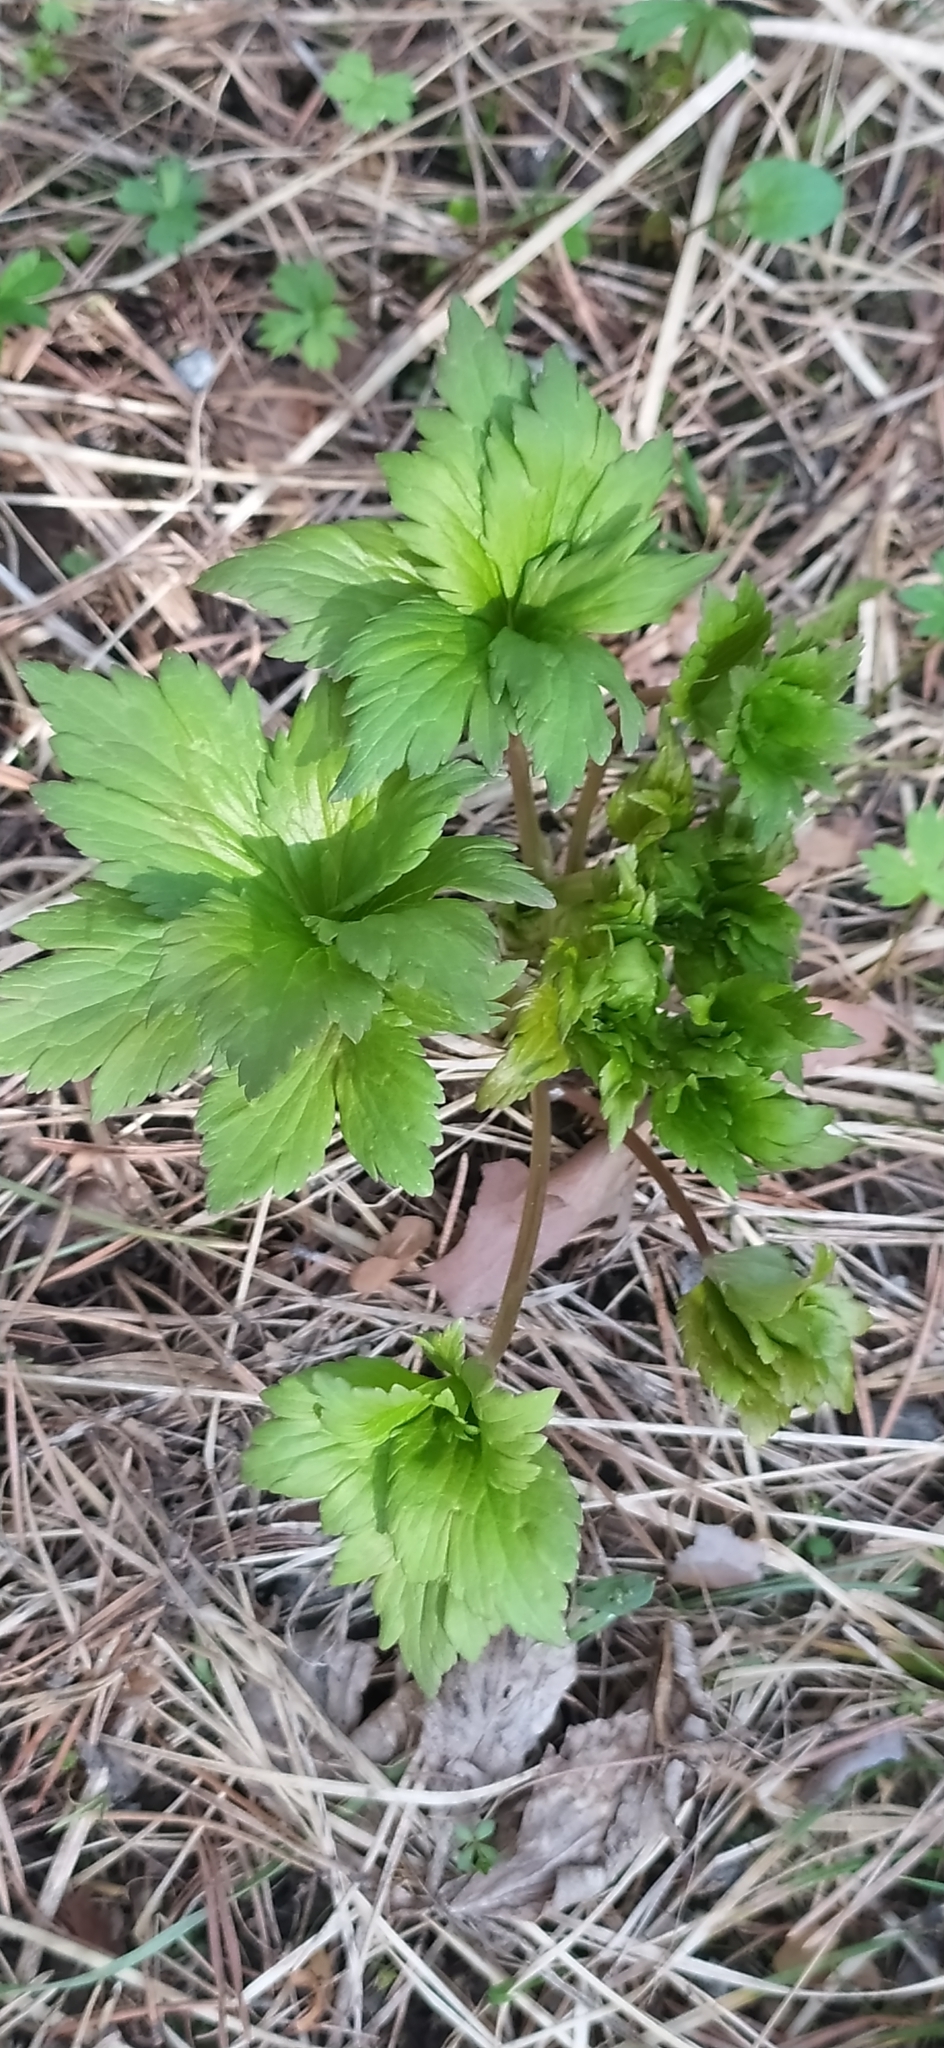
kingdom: Plantae
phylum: Tracheophyta
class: Magnoliopsida
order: Ranunculales
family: Ranunculaceae
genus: Trollius
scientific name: Trollius europaeus
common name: European globeflower
